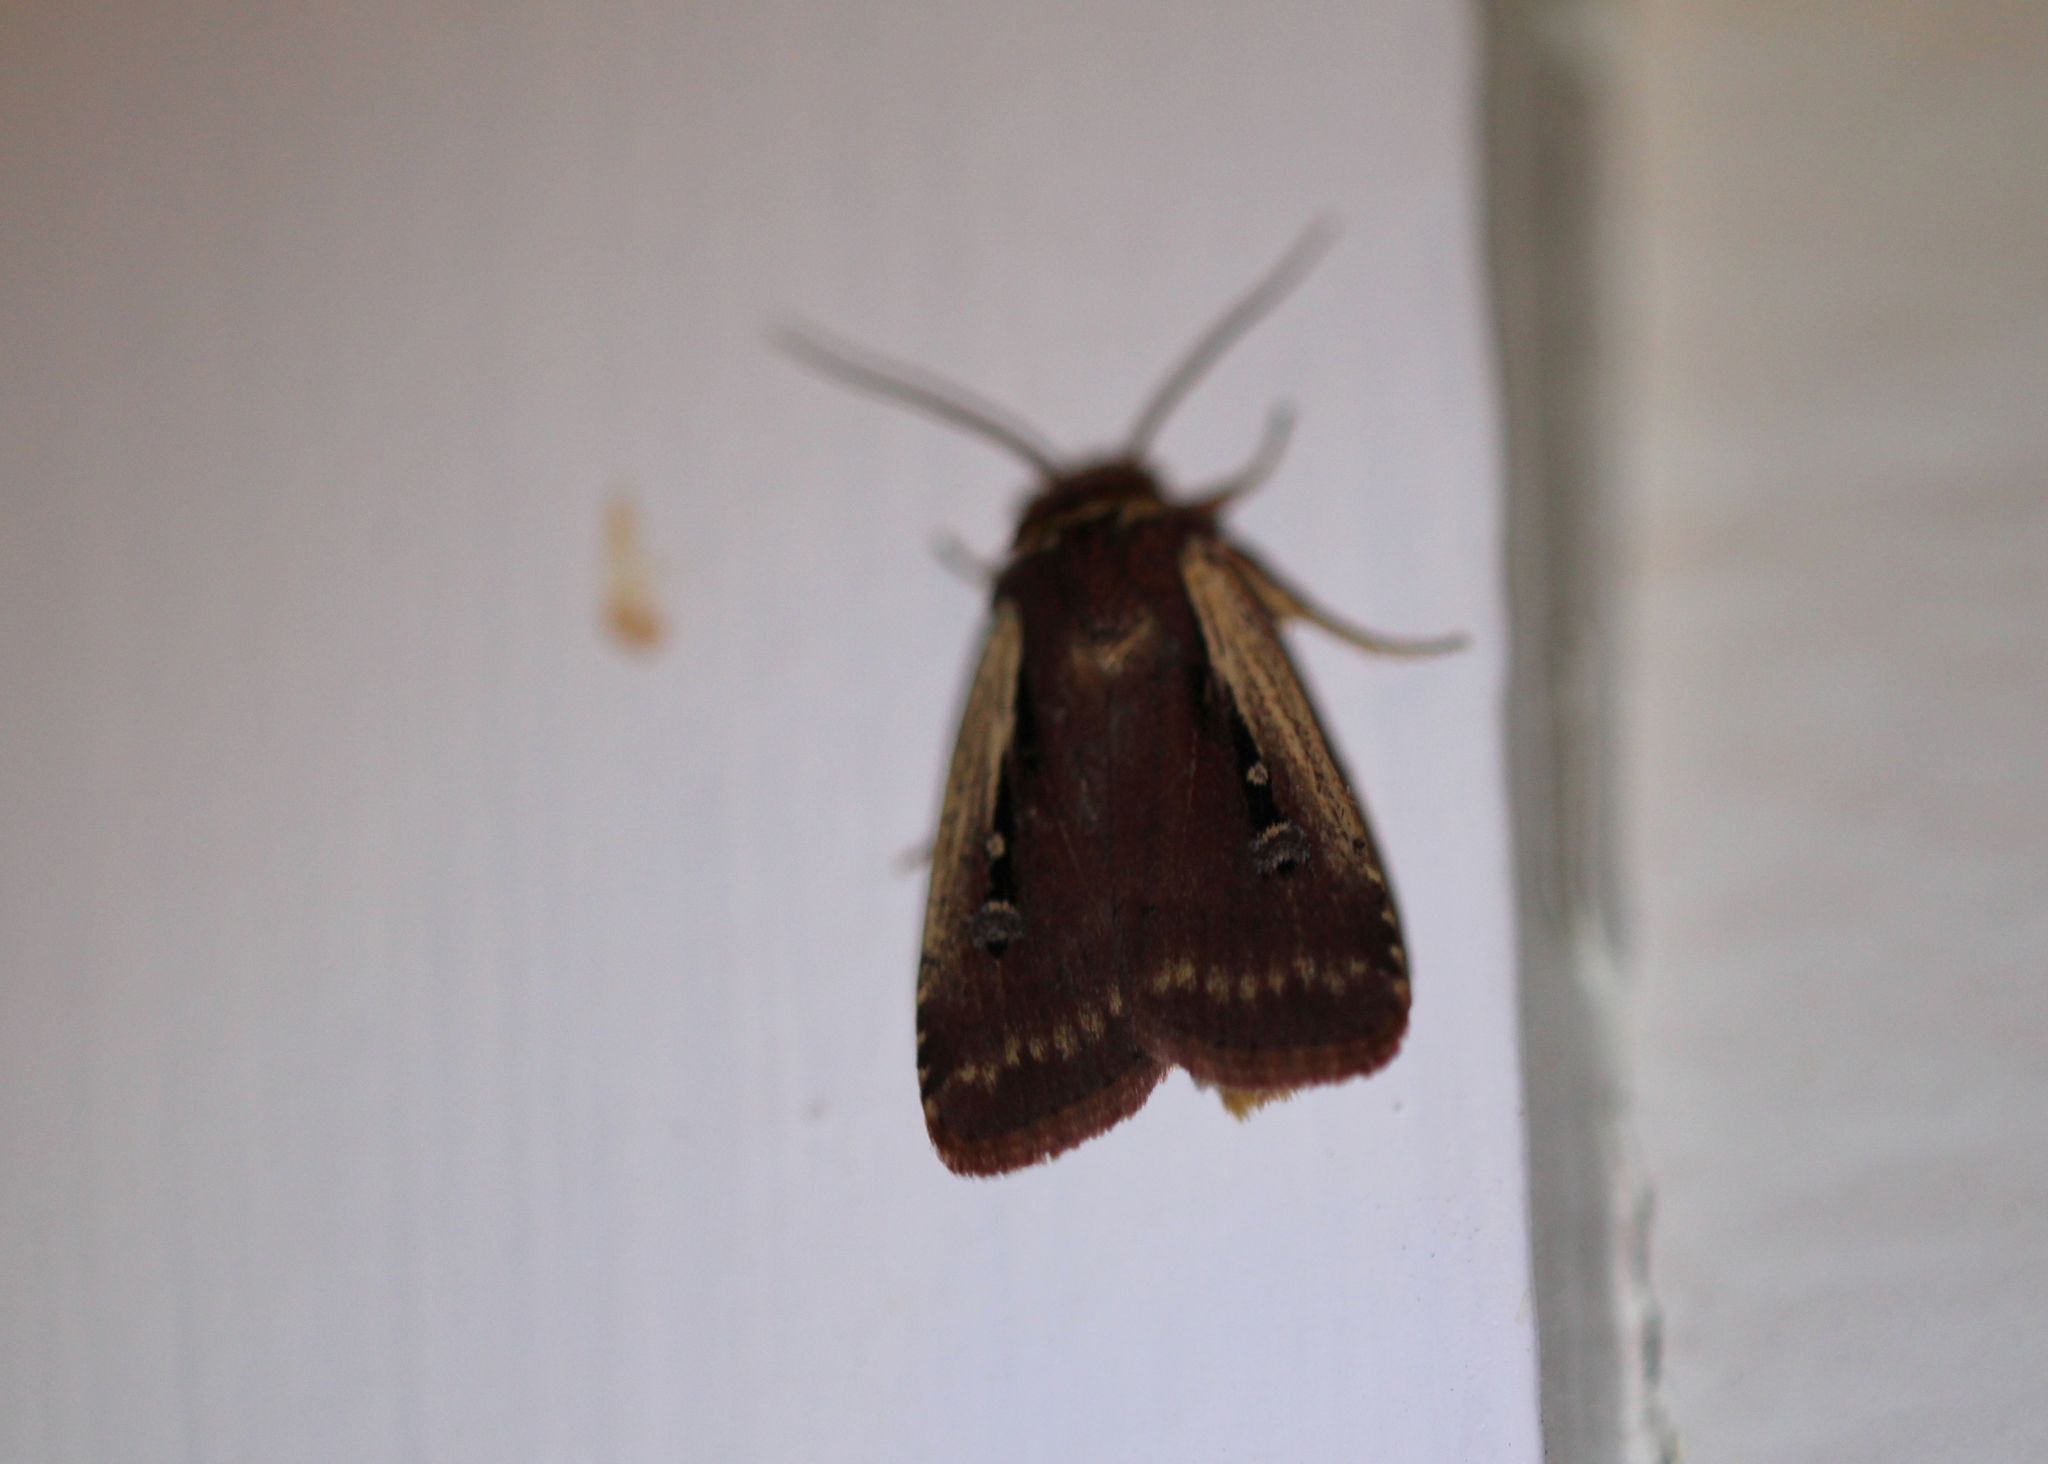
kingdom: Animalia
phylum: Arthropoda
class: Insecta
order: Lepidoptera
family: Noctuidae
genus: Ochropleura
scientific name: Ochropleura implecta
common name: Flame-shouldered dart
